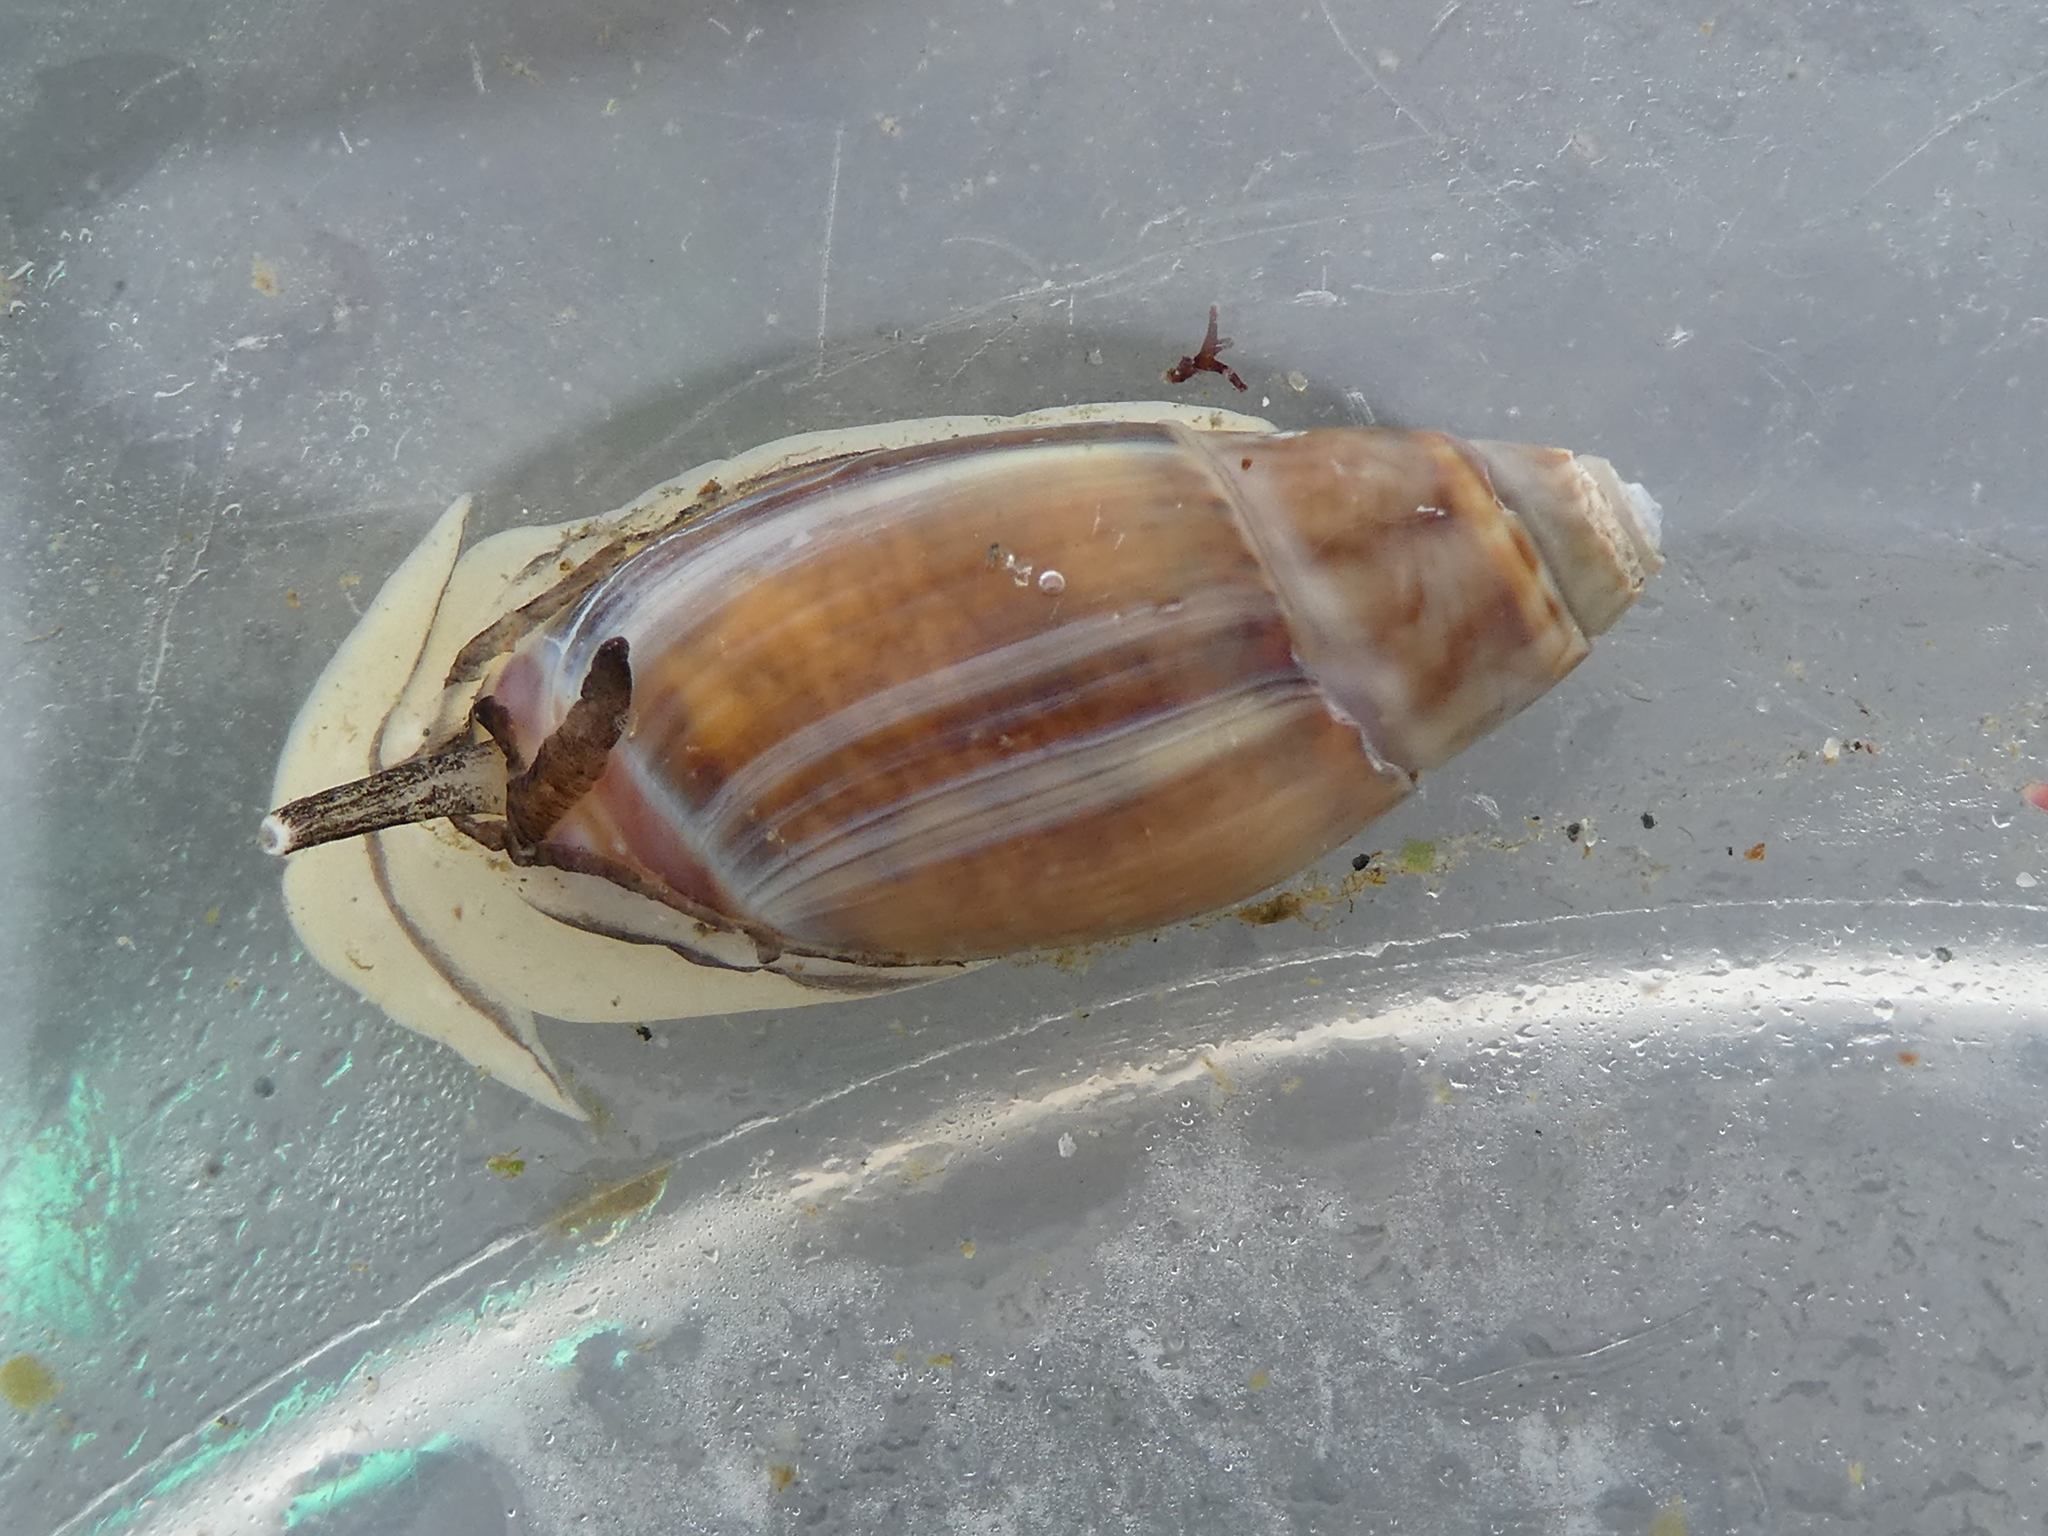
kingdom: Animalia
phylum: Mollusca
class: Gastropoda
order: Neogastropoda
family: Olividae
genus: Callianax
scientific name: Callianax alectona
